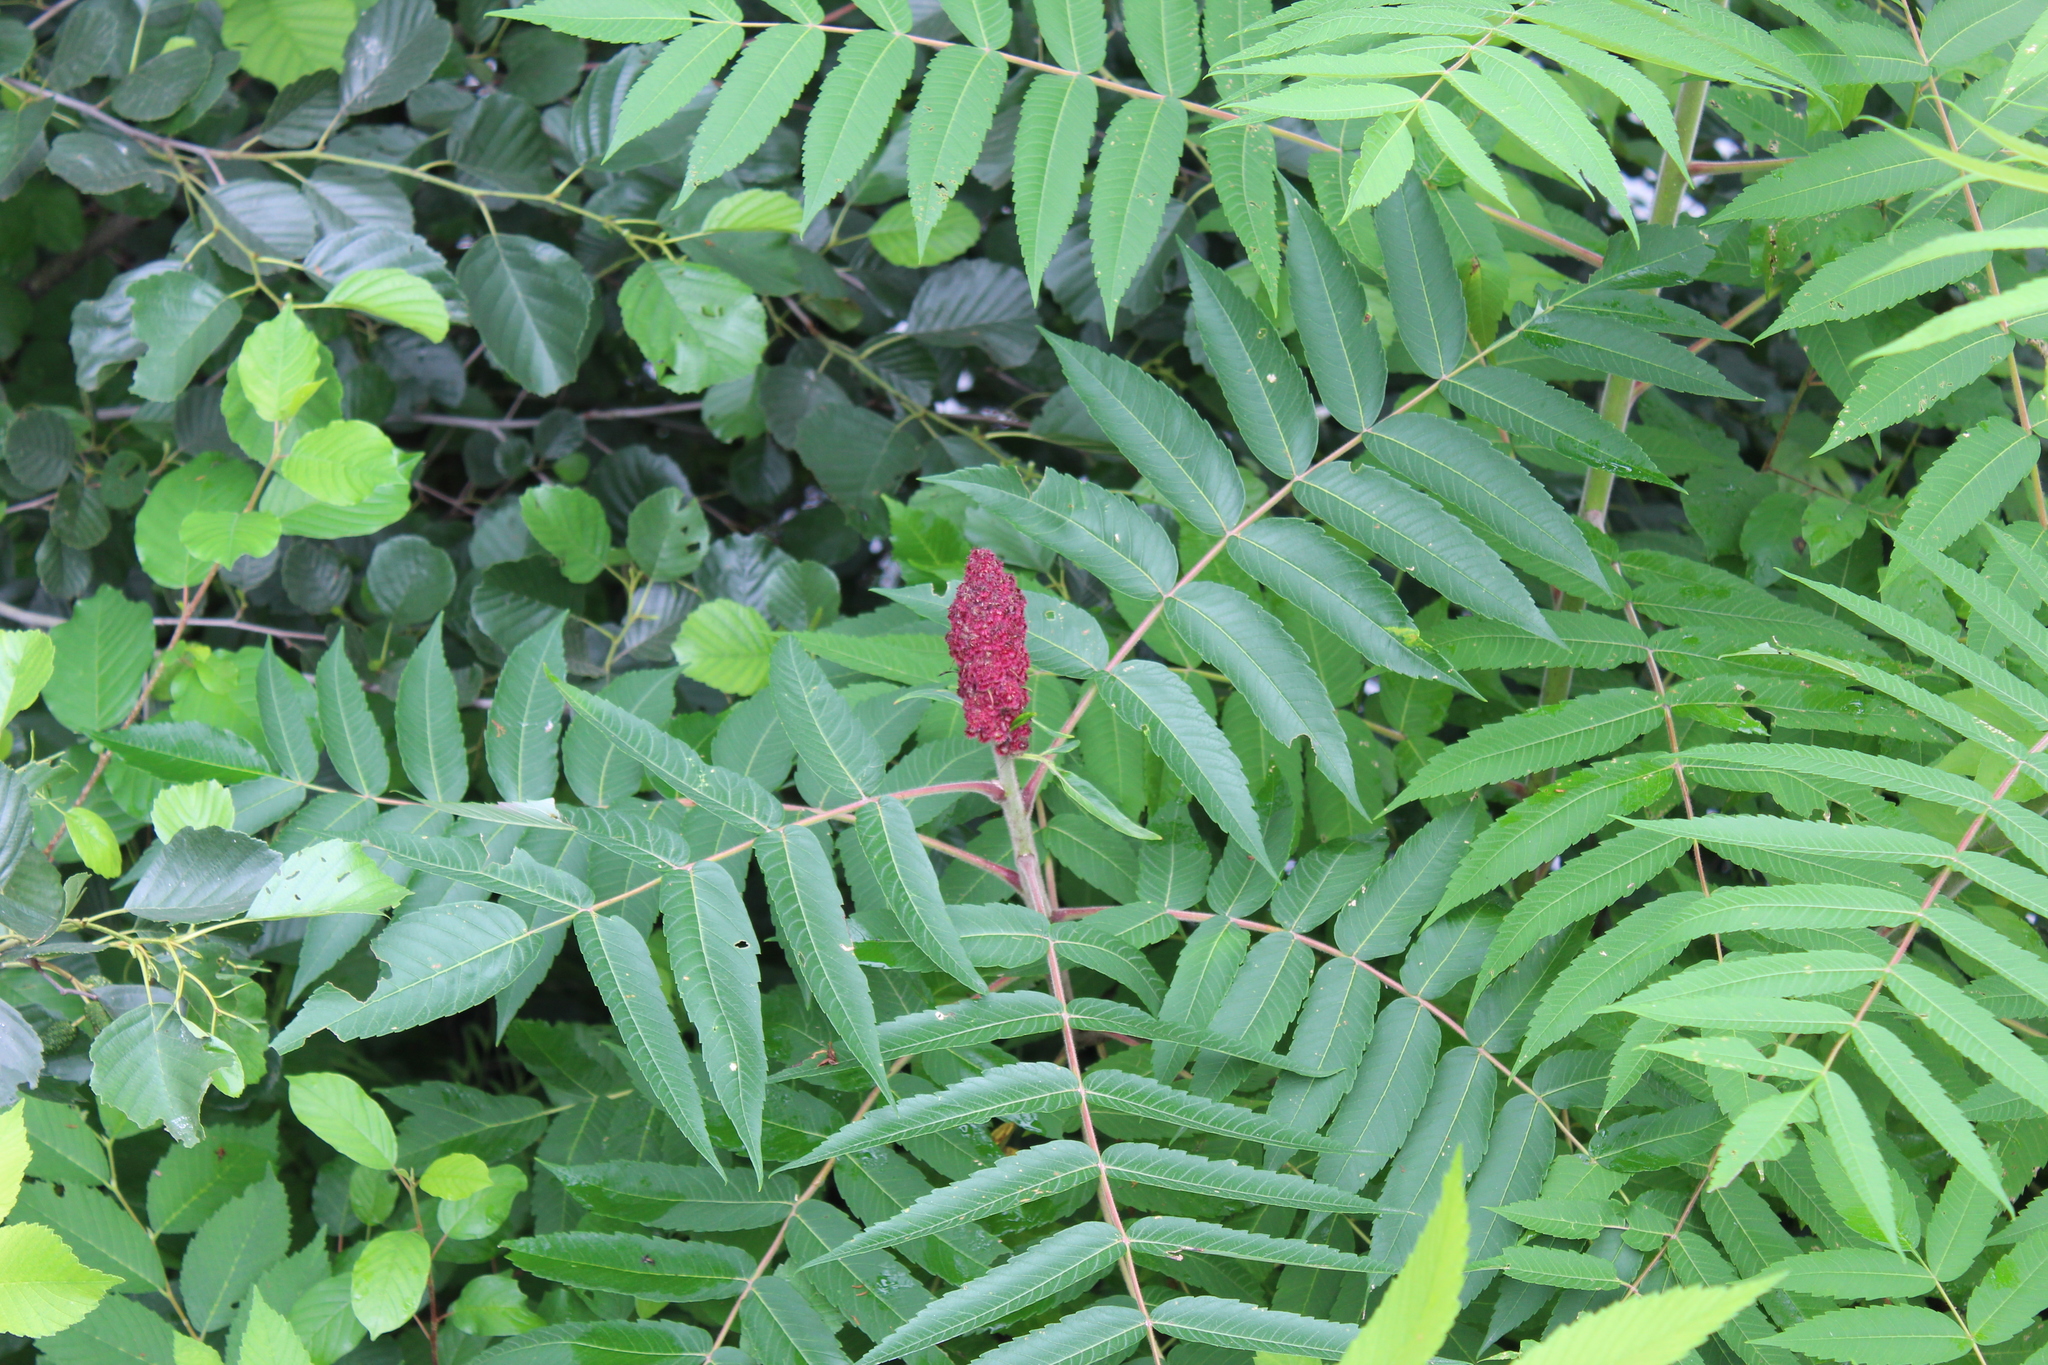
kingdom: Plantae
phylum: Tracheophyta
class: Magnoliopsida
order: Sapindales
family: Anacardiaceae
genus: Rhus
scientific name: Rhus typhina
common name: Staghorn sumac
